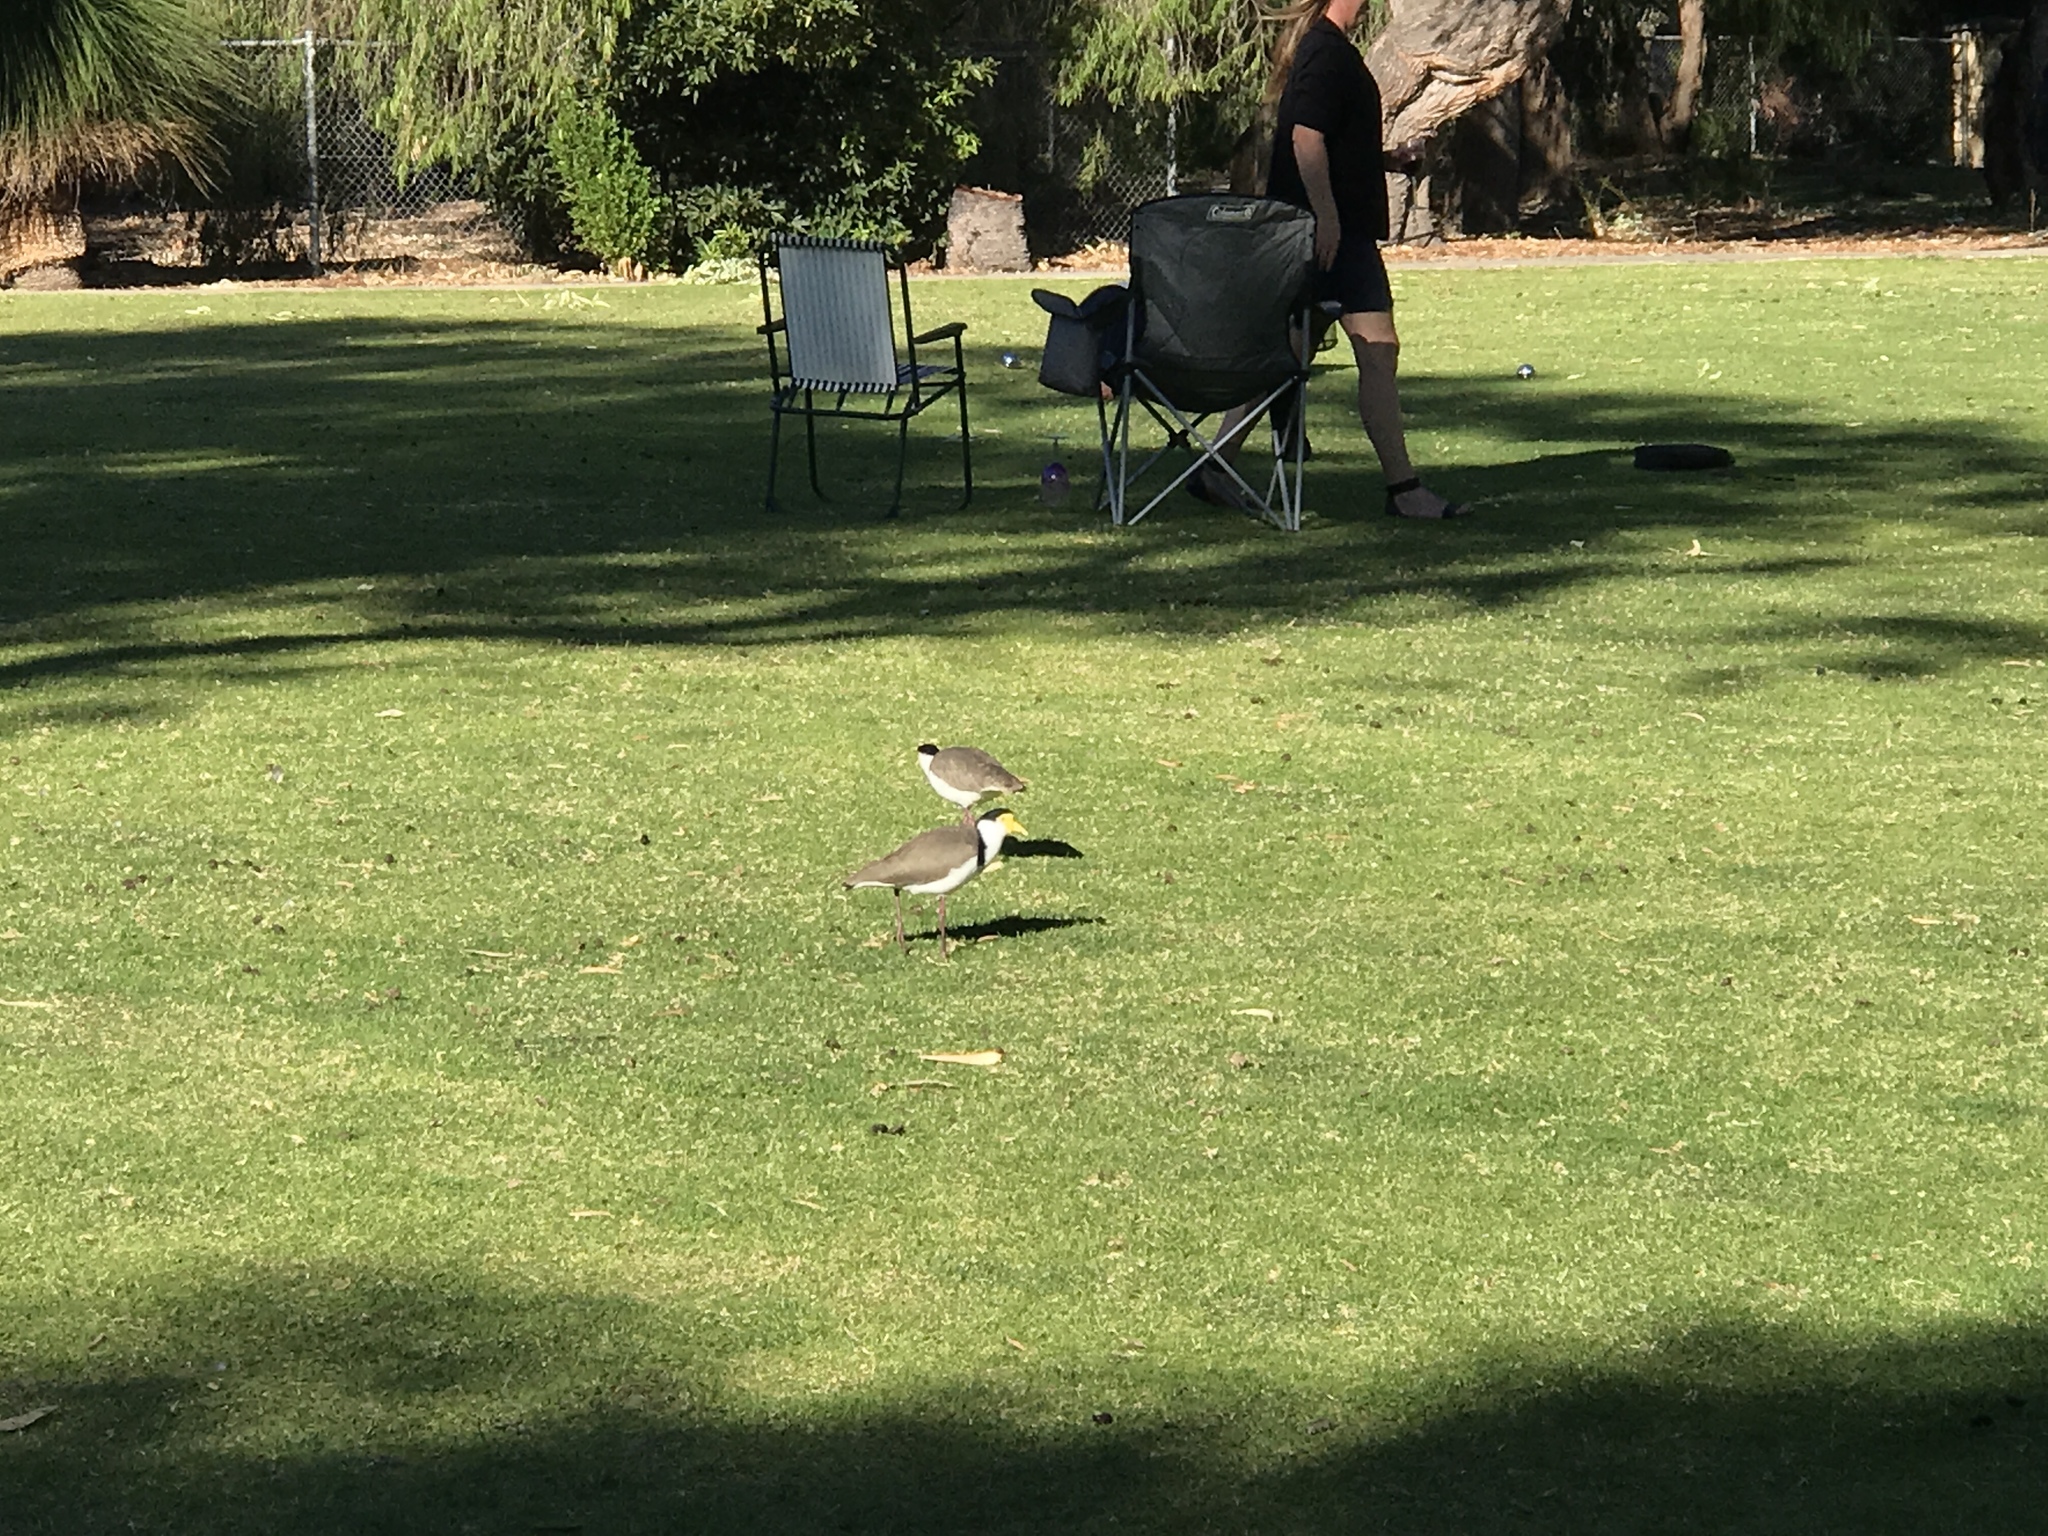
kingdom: Animalia
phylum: Chordata
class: Aves
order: Charadriiformes
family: Charadriidae
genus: Vanellus
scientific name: Vanellus miles
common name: Masked lapwing
